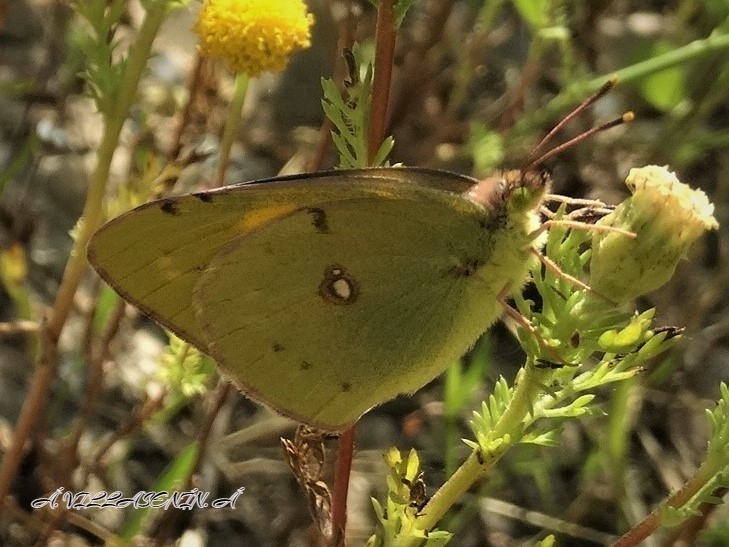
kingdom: Animalia
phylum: Arthropoda
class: Insecta
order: Lepidoptera
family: Pieridae
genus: Colias
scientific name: Colias croceus
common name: Clouded yellow
